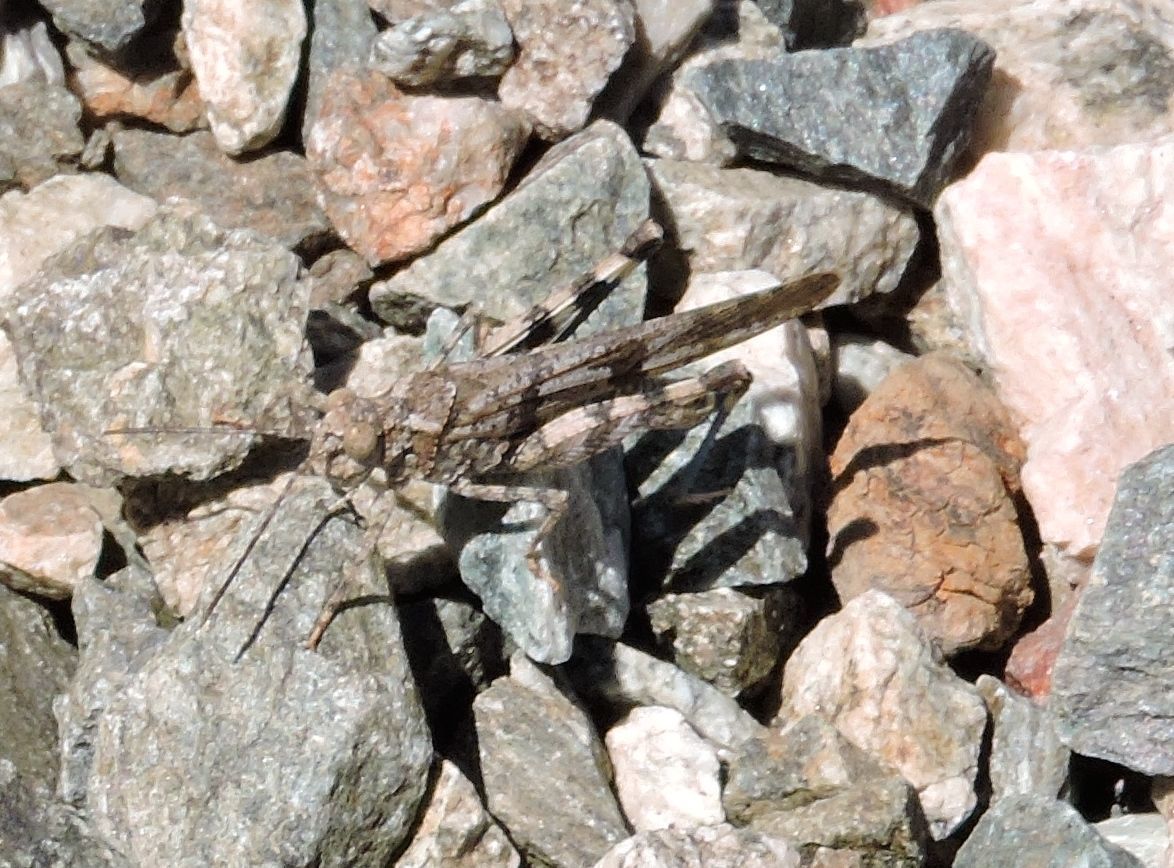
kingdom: Animalia
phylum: Arthropoda
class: Insecta
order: Orthoptera
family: Acrididae
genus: Trimerotropis
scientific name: Trimerotropis fontana
